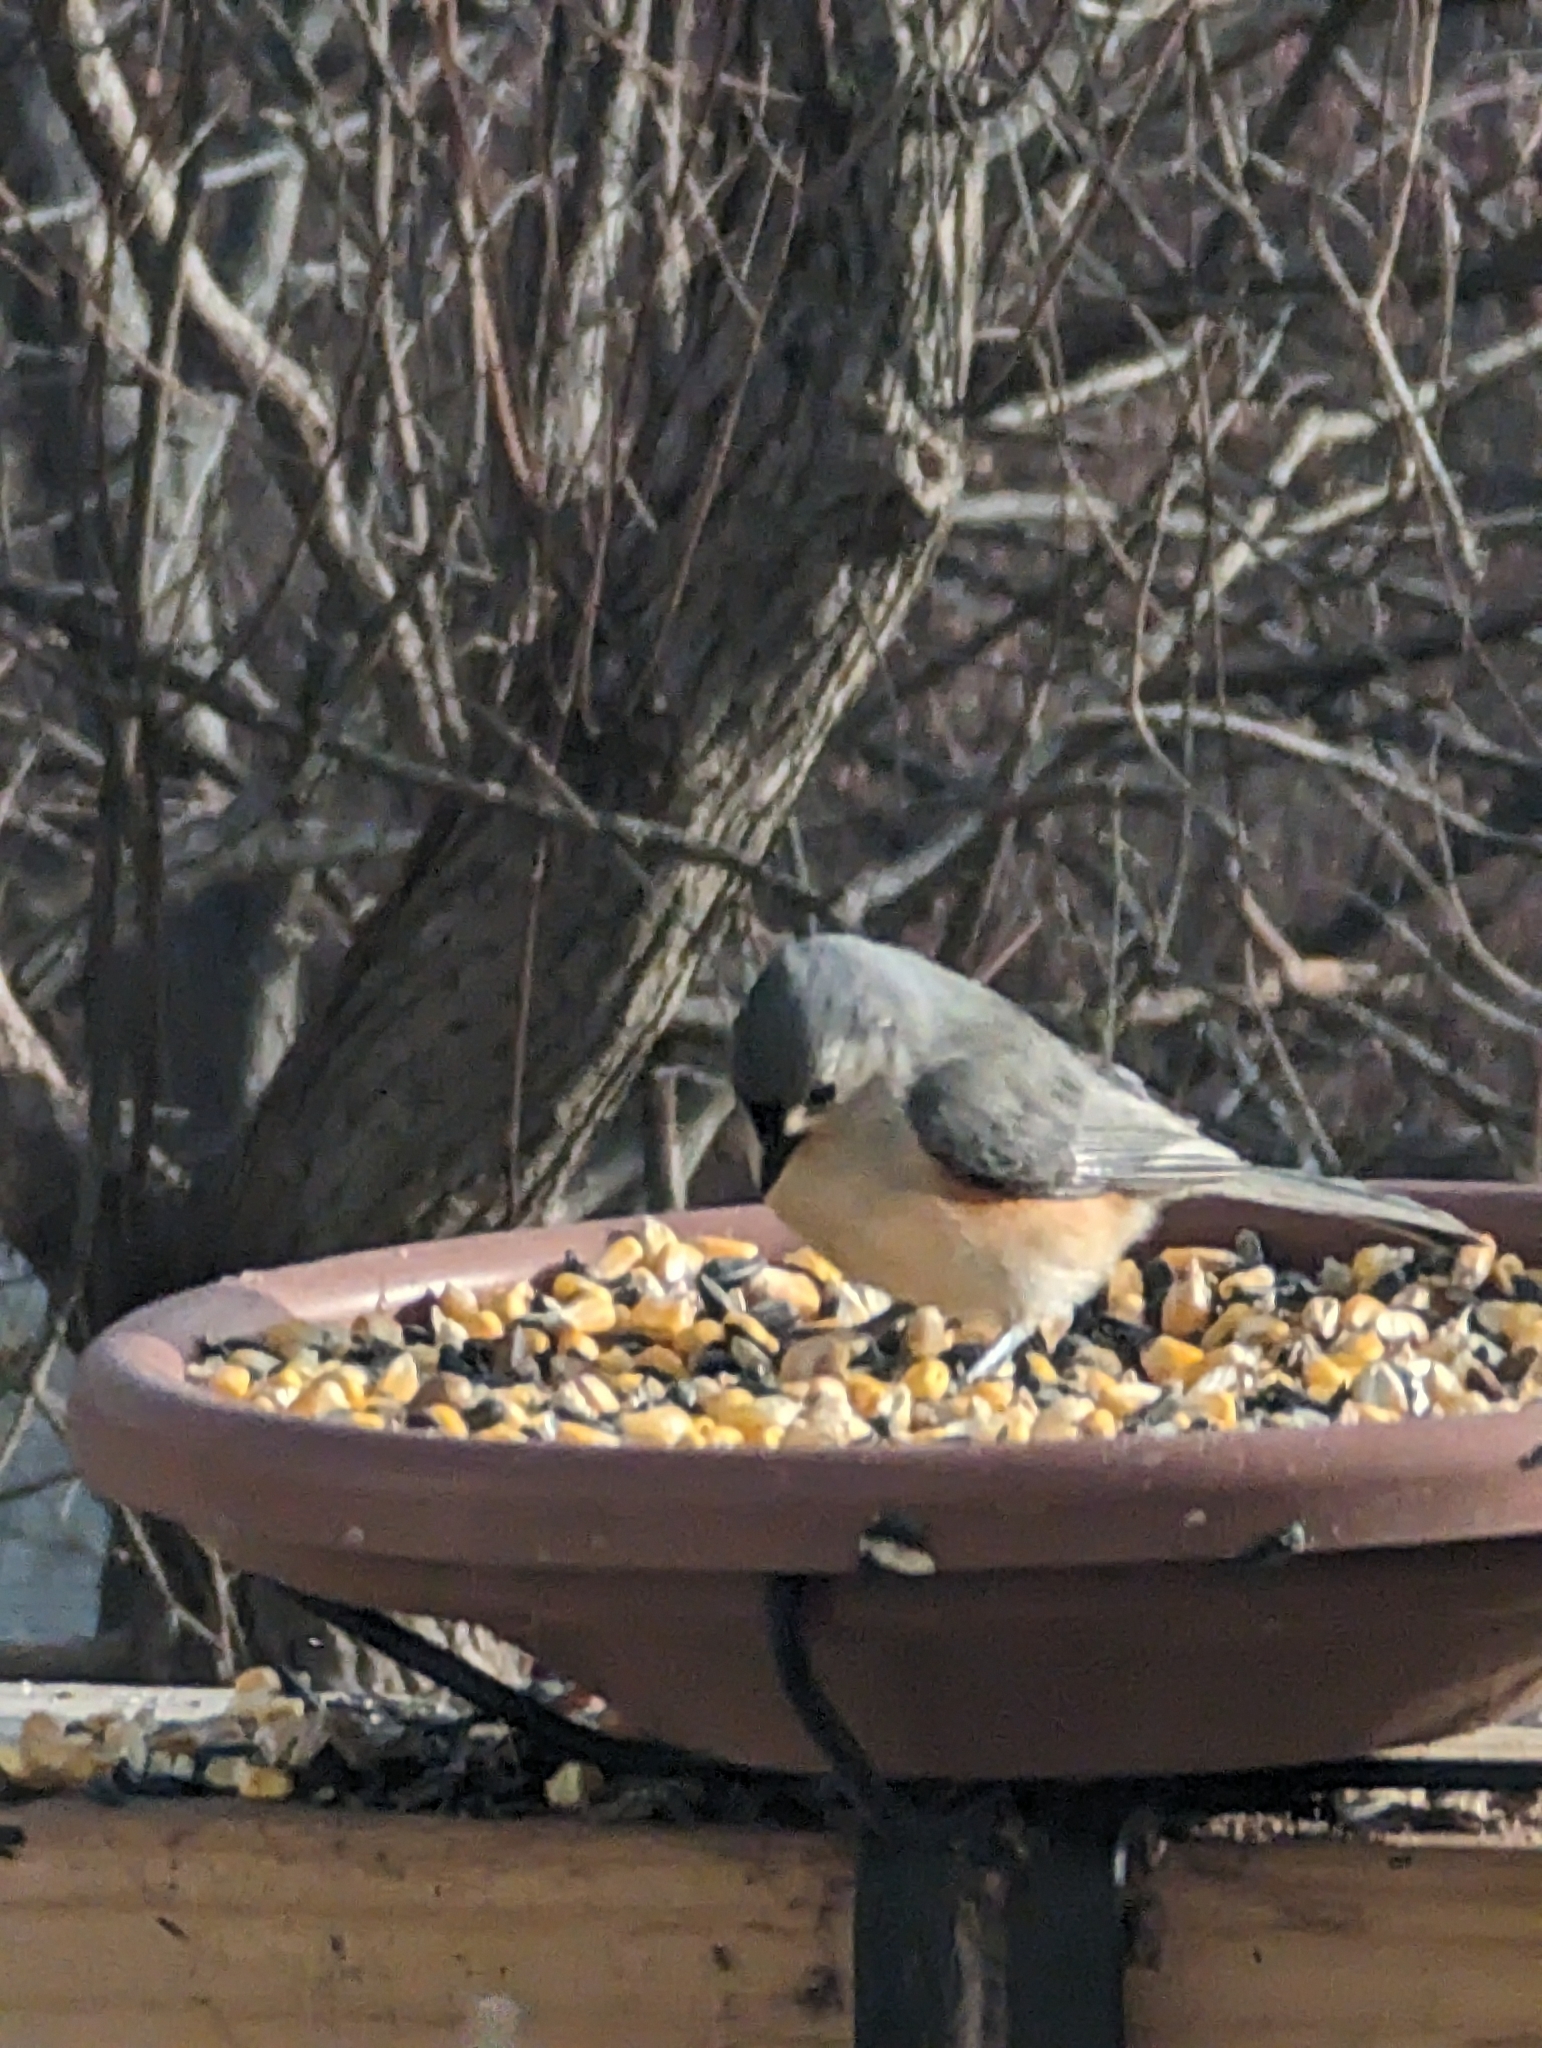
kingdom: Animalia
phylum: Chordata
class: Aves
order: Passeriformes
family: Paridae
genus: Baeolophus
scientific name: Baeolophus bicolor
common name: Tufted titmouse
